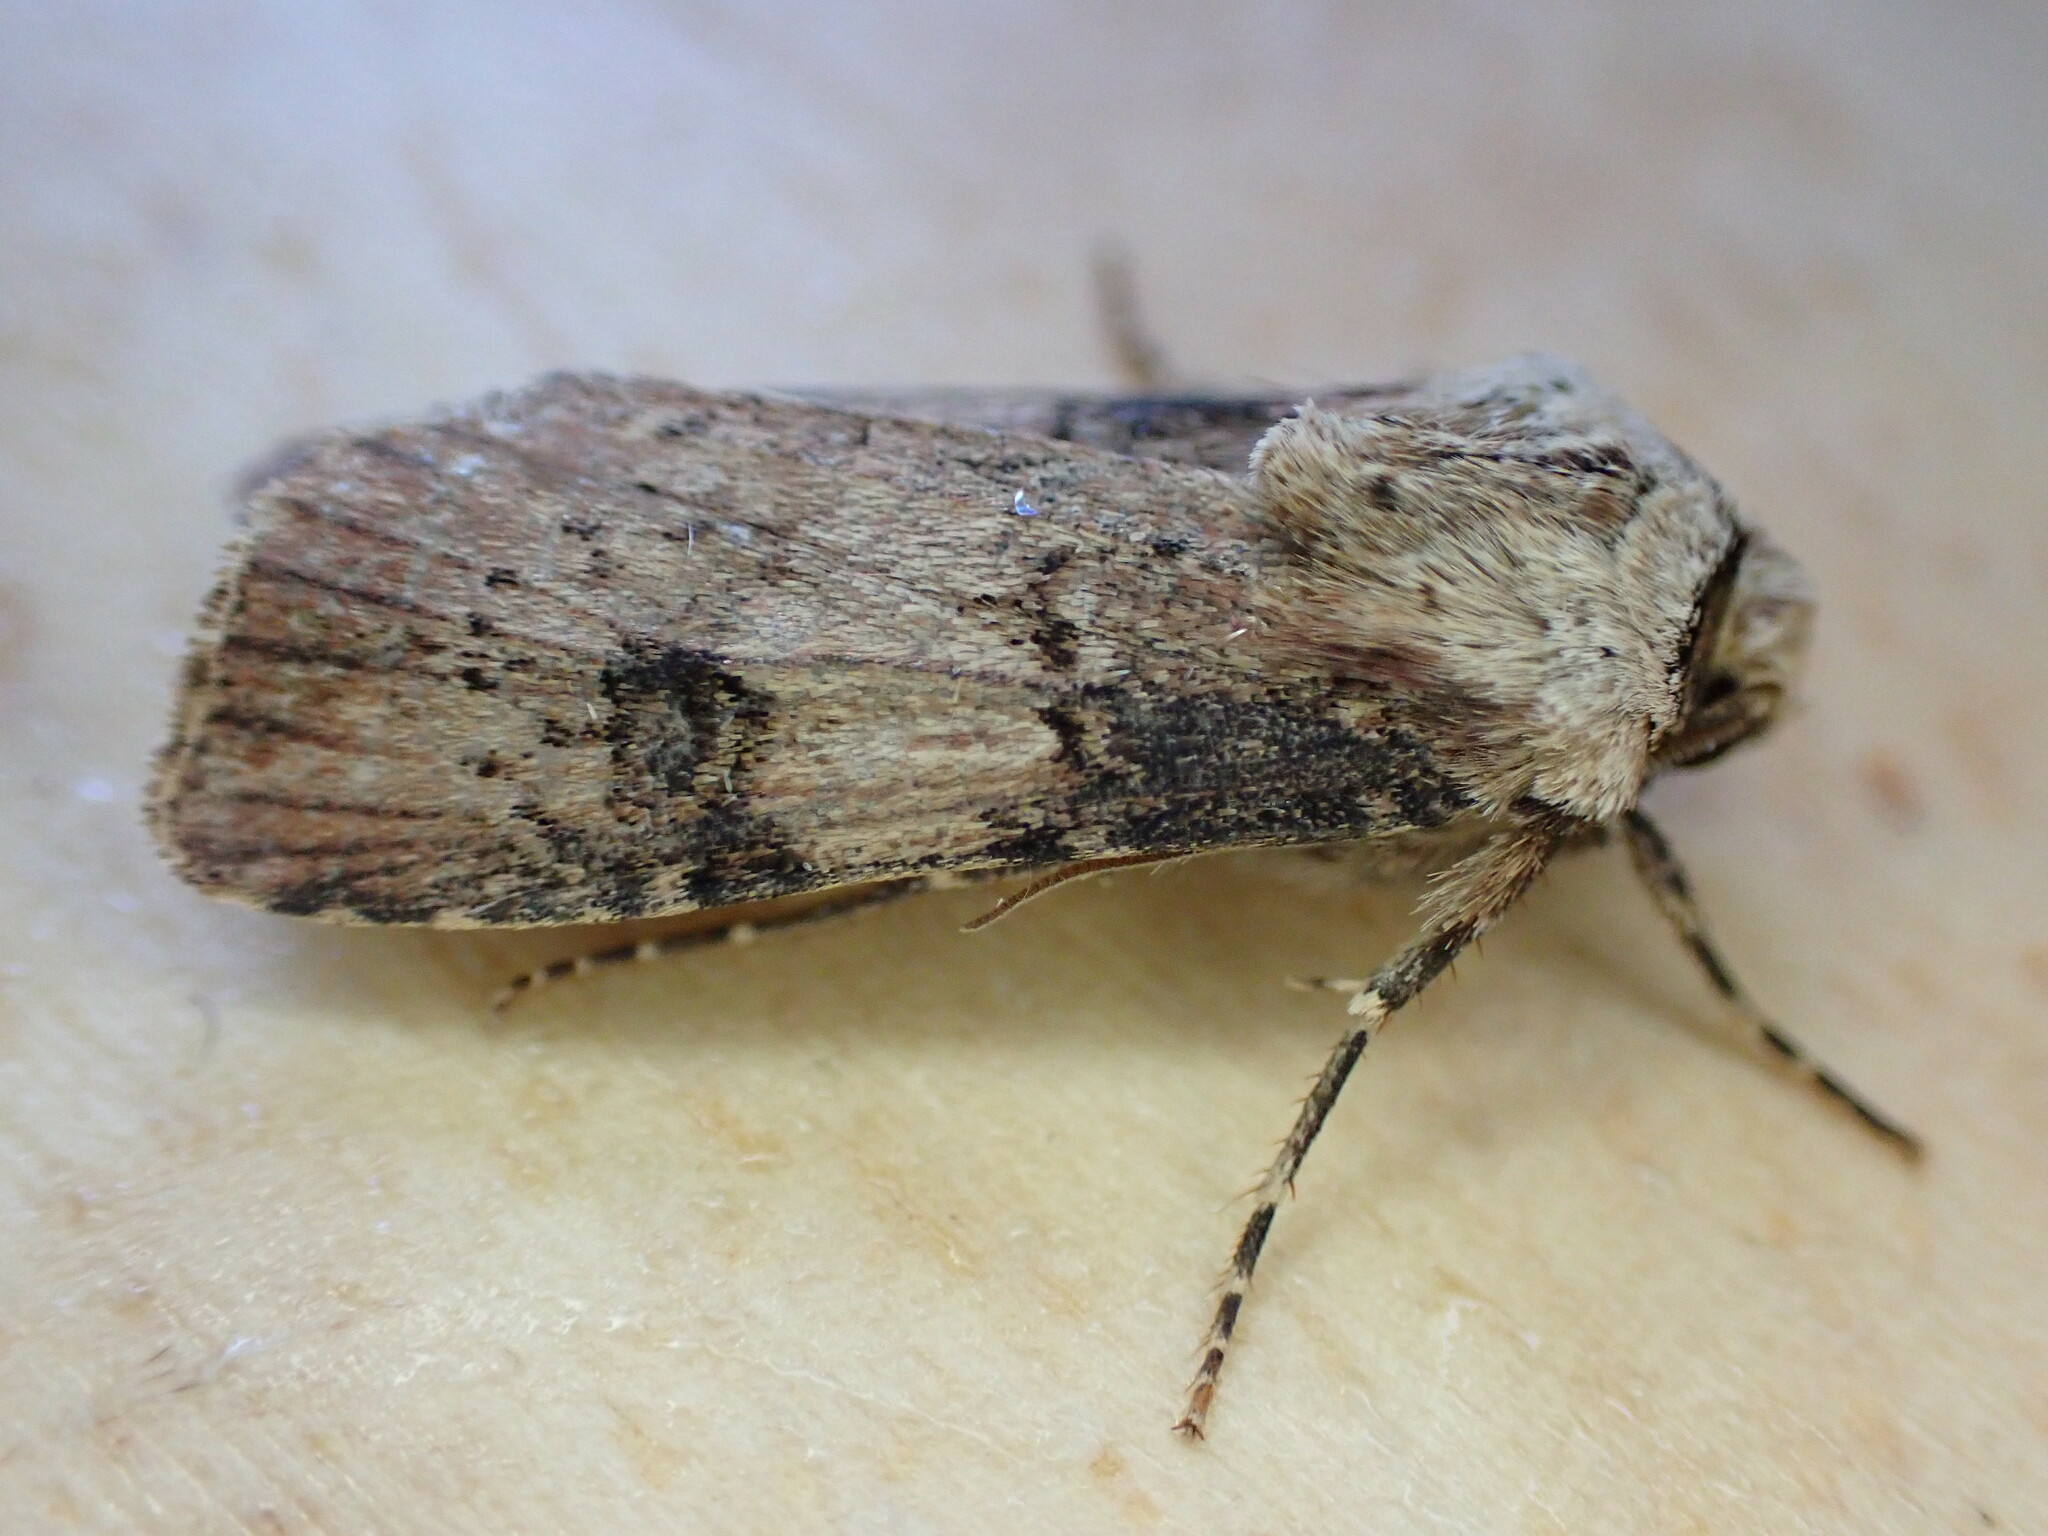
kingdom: Animalia
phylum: Arthropoda
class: Insecta
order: Lepidoptera
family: Noctuidae
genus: Agrotis
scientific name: Agrotis puta
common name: Shuttle-shaped dart
